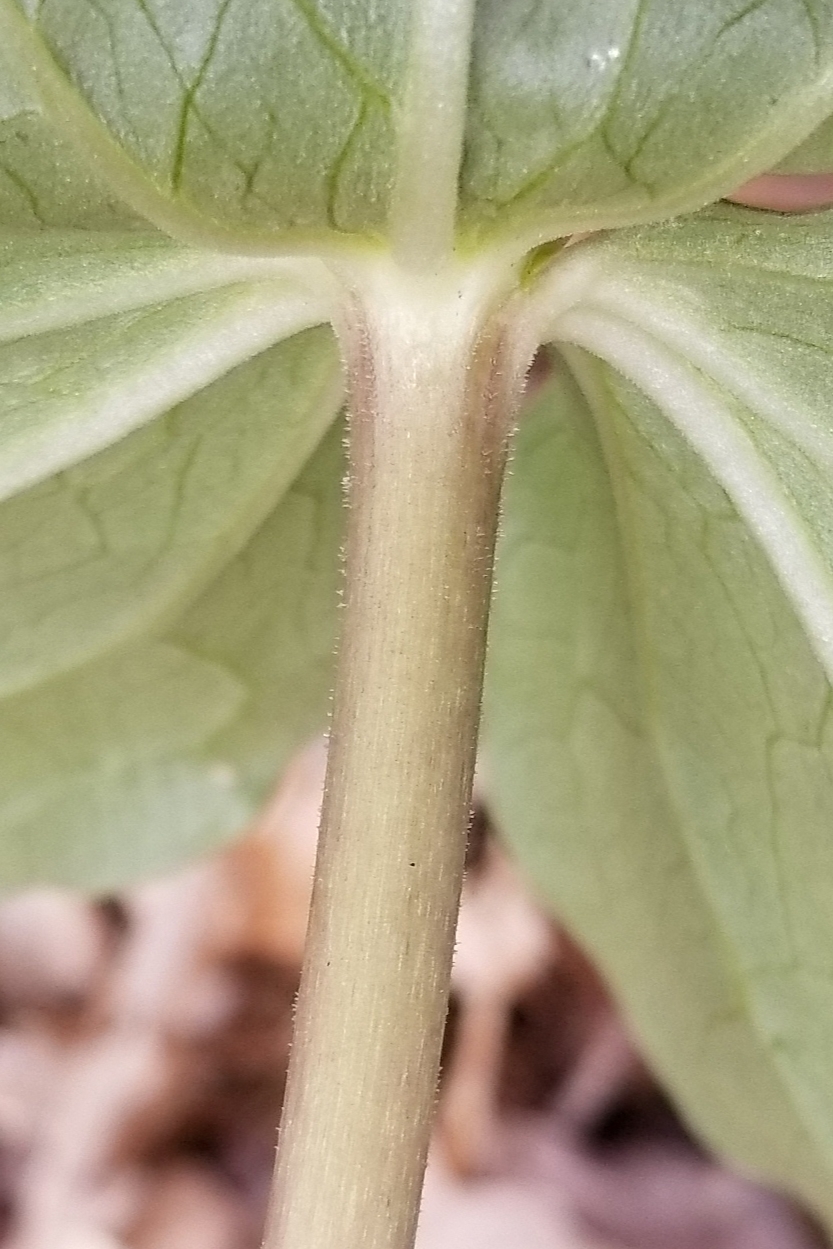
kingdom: Plantae
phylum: Tracheophyta
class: Liliopsida
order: Liliales
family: Melanthiaceae
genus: Trillium
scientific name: Trillium cuneatum
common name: Cuneate trillium
